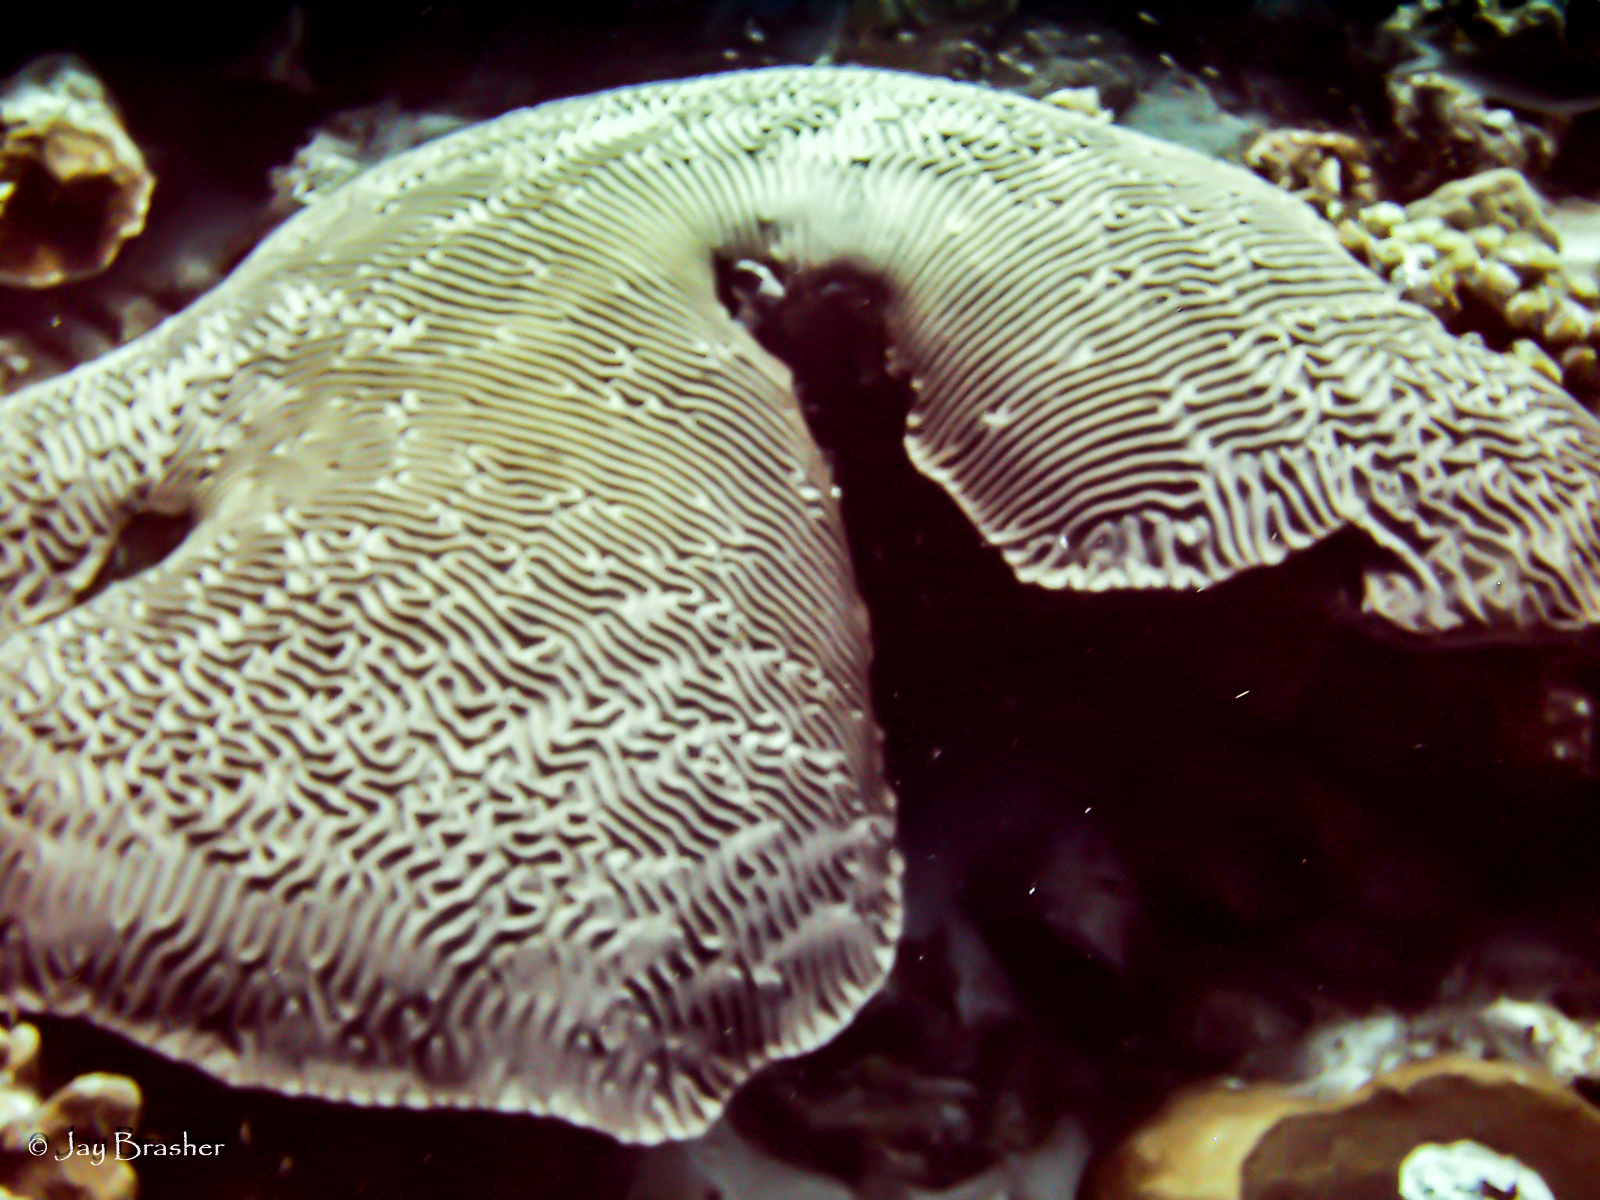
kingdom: Animalia
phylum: Cnidaria
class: Anthozoa
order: Scleractinia
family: Faviidae
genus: Pseudodiploria
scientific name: Pseudodiploria strigosa
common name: Symmetrical brain coral
